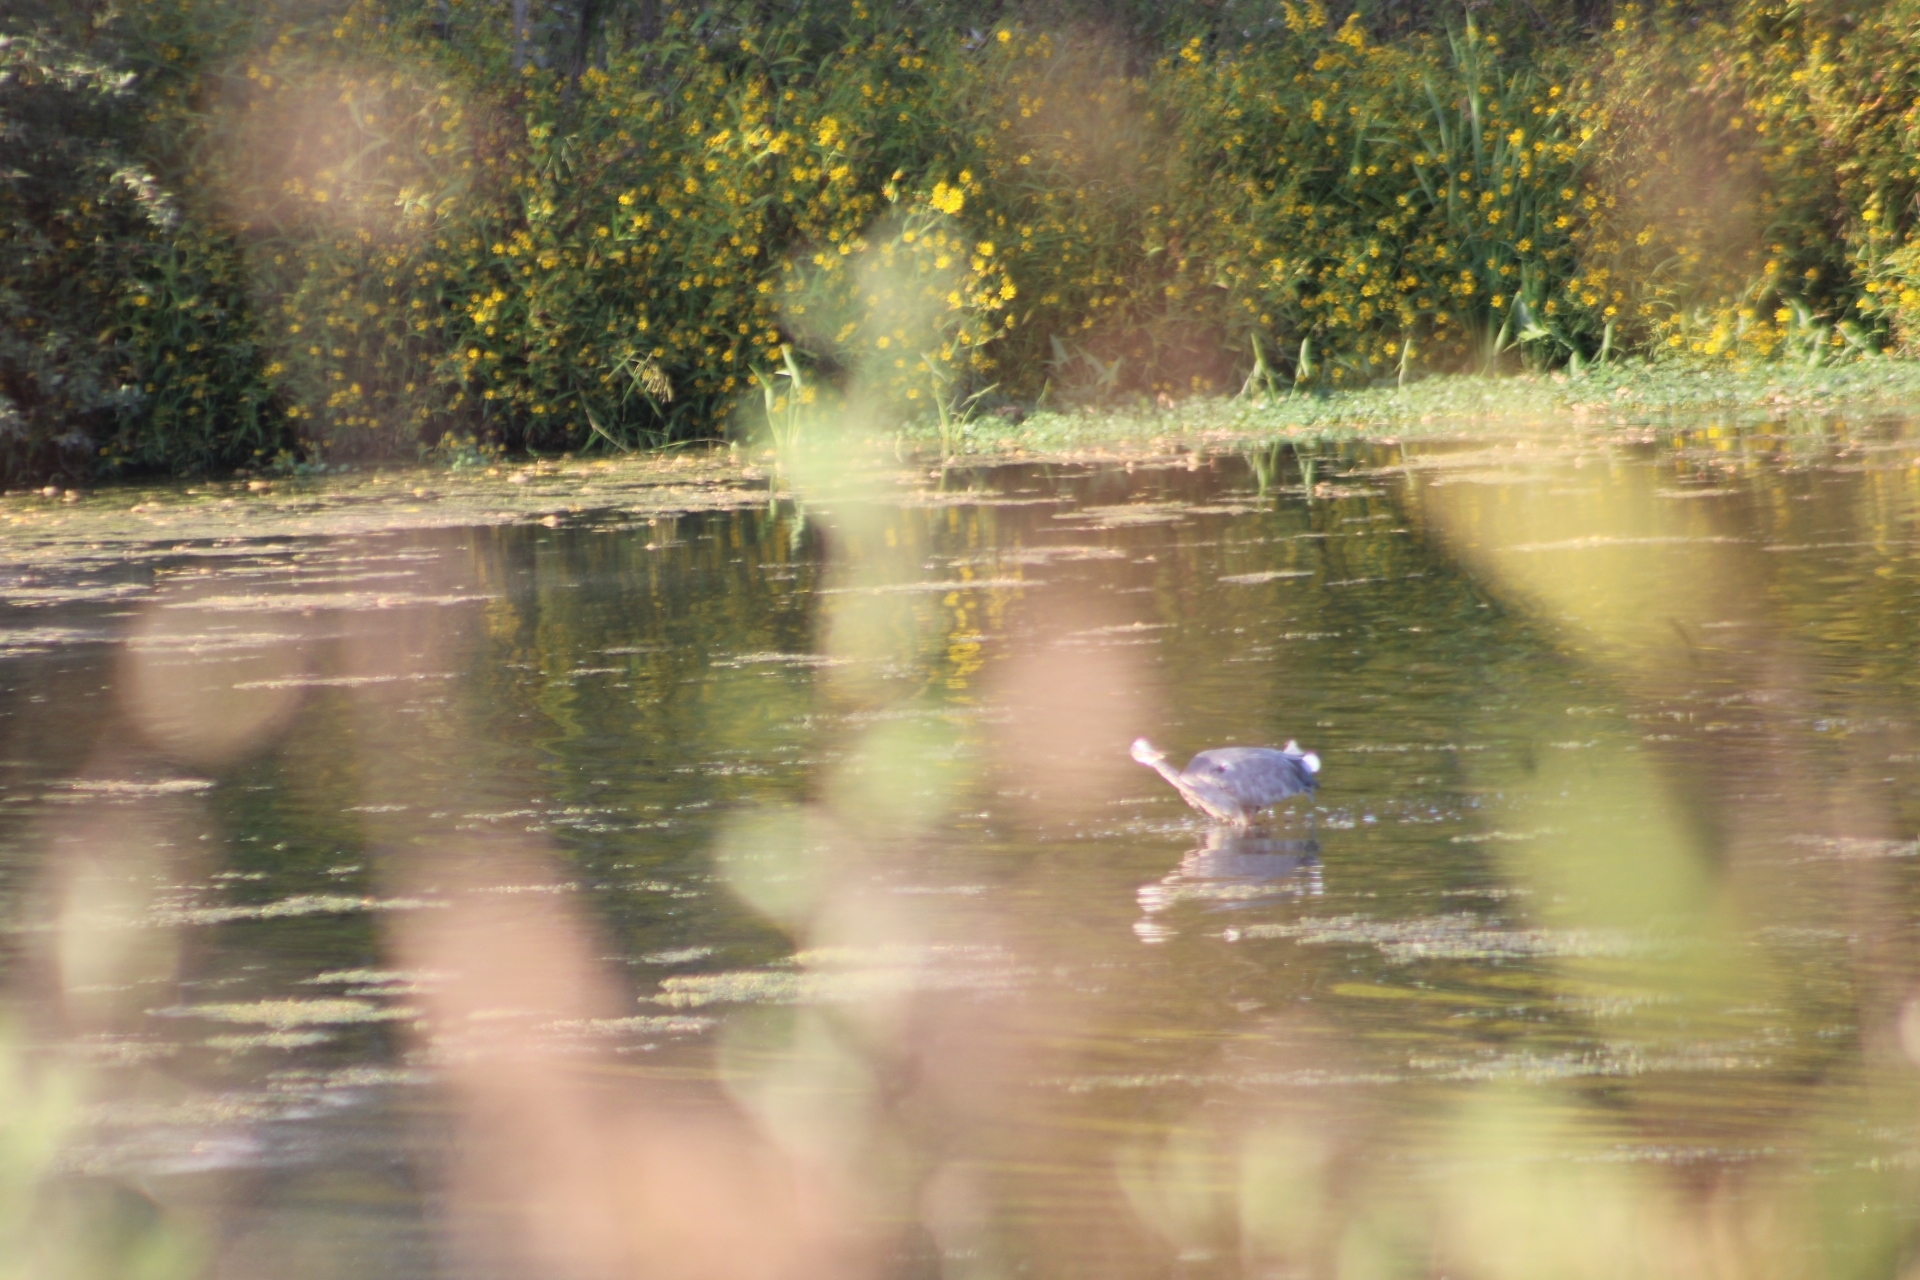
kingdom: Animalia
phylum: Chordata
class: Aves
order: Pelecaniformes
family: Ardeidae
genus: Ardea
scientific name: Ardea herodias
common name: Great blue heron
